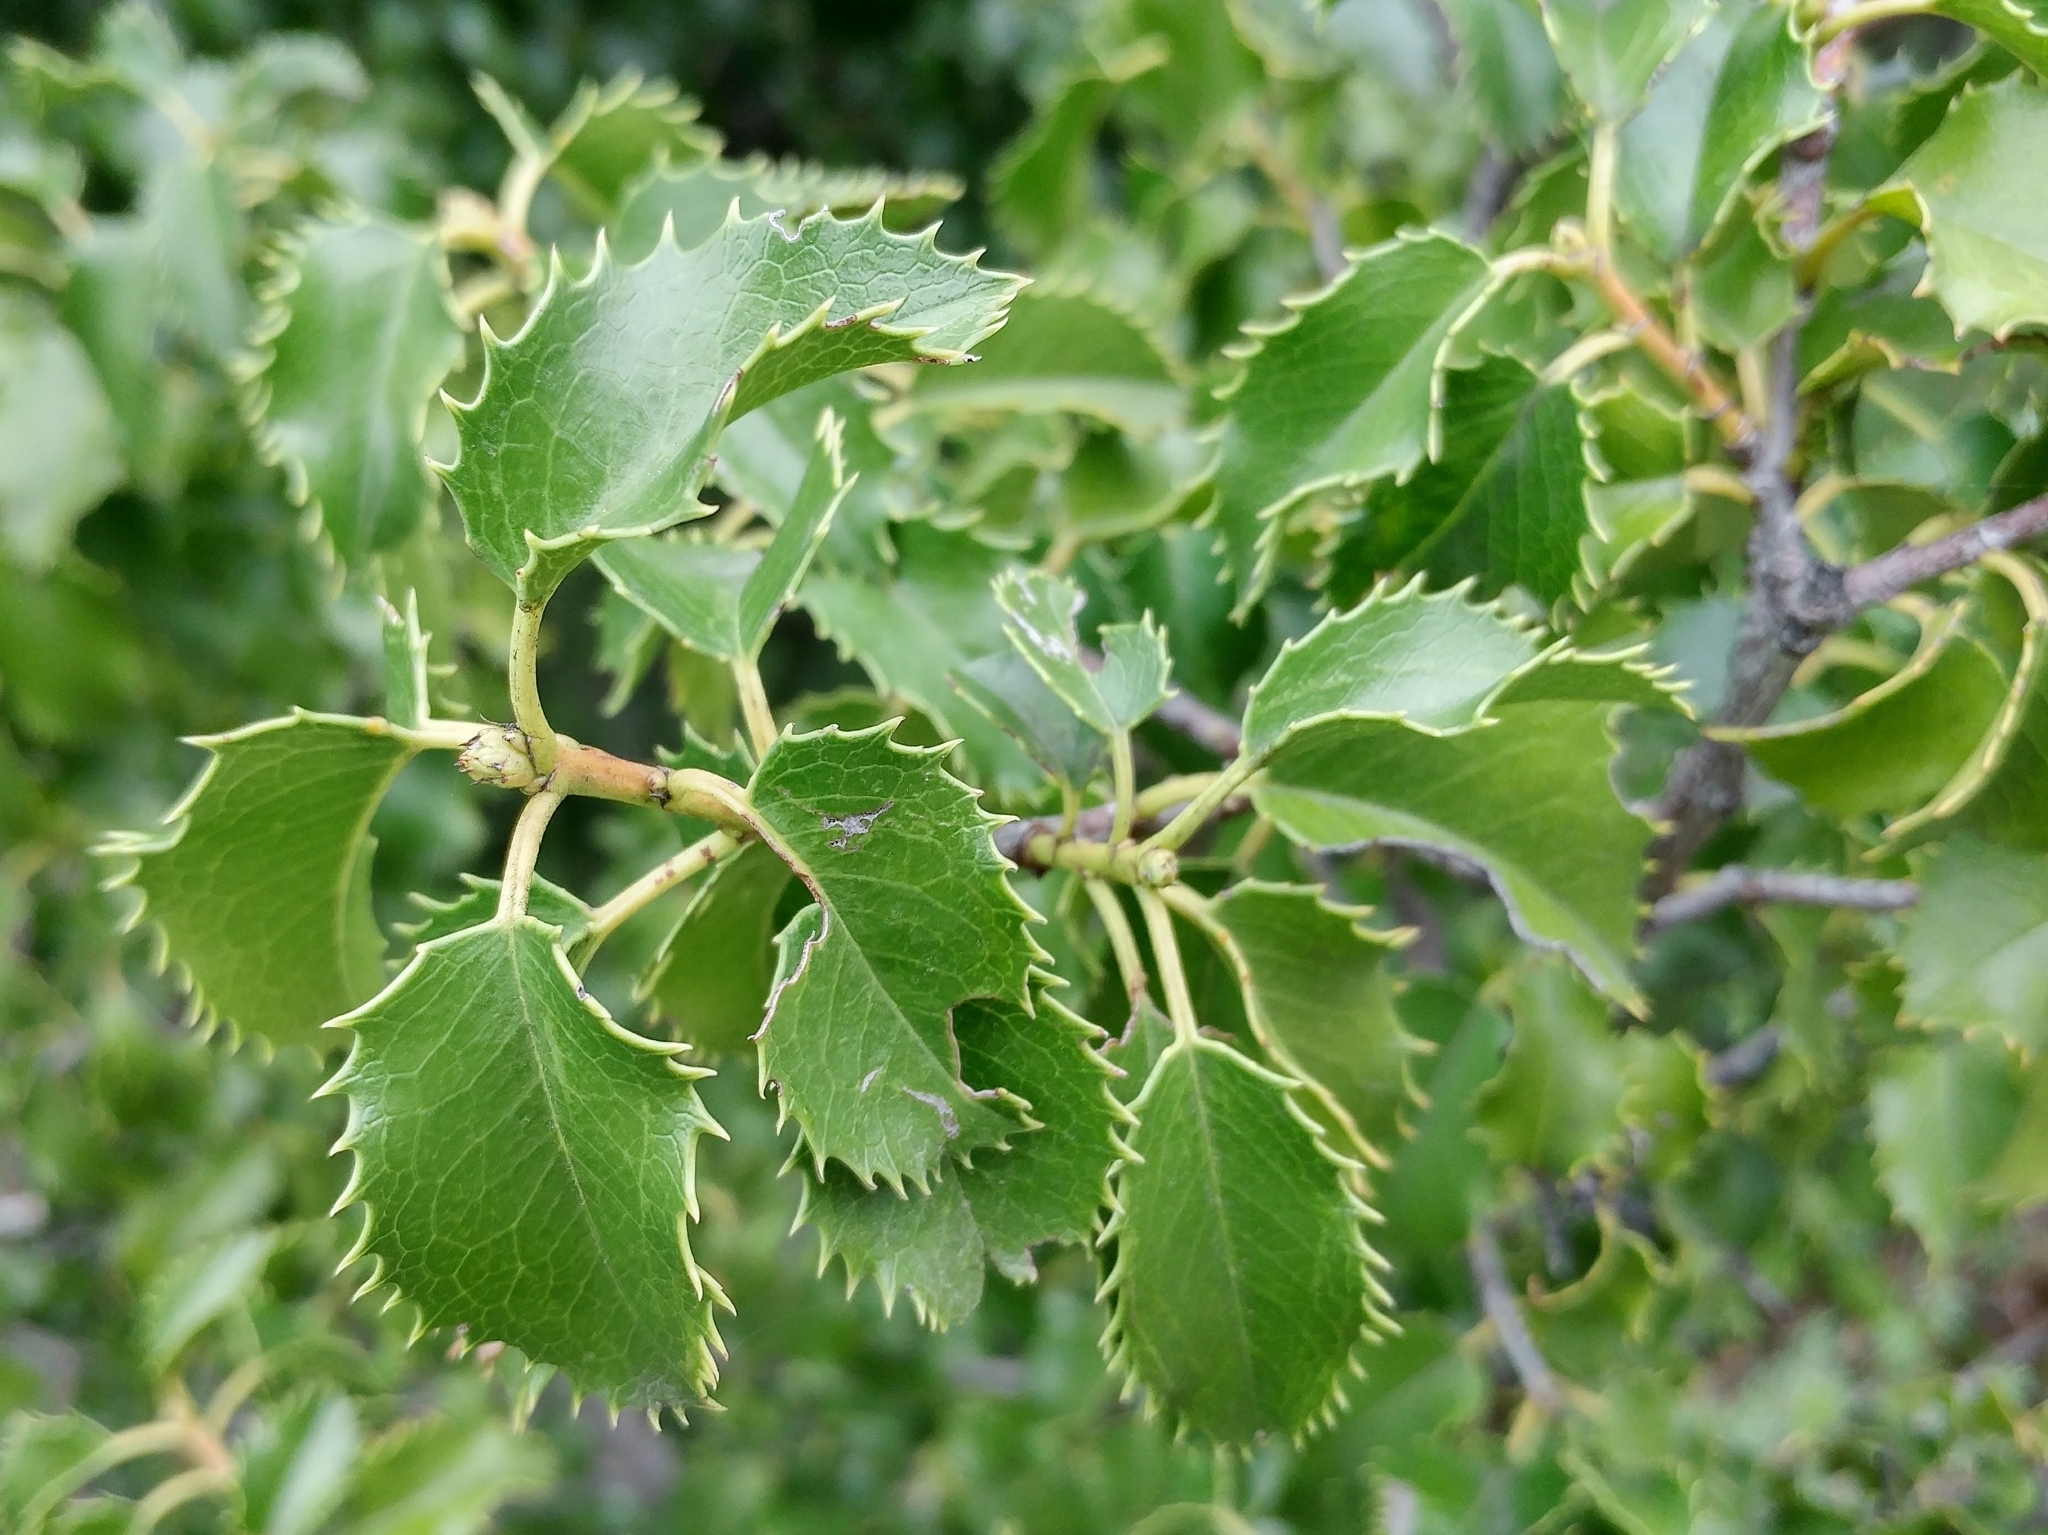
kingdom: Plantae
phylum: Tracheophyta
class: Magnoliopsida
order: Rosales
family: Rosaceae
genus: Prunus
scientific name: Prunus ilicifolia
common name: Hollyleaf cherry
